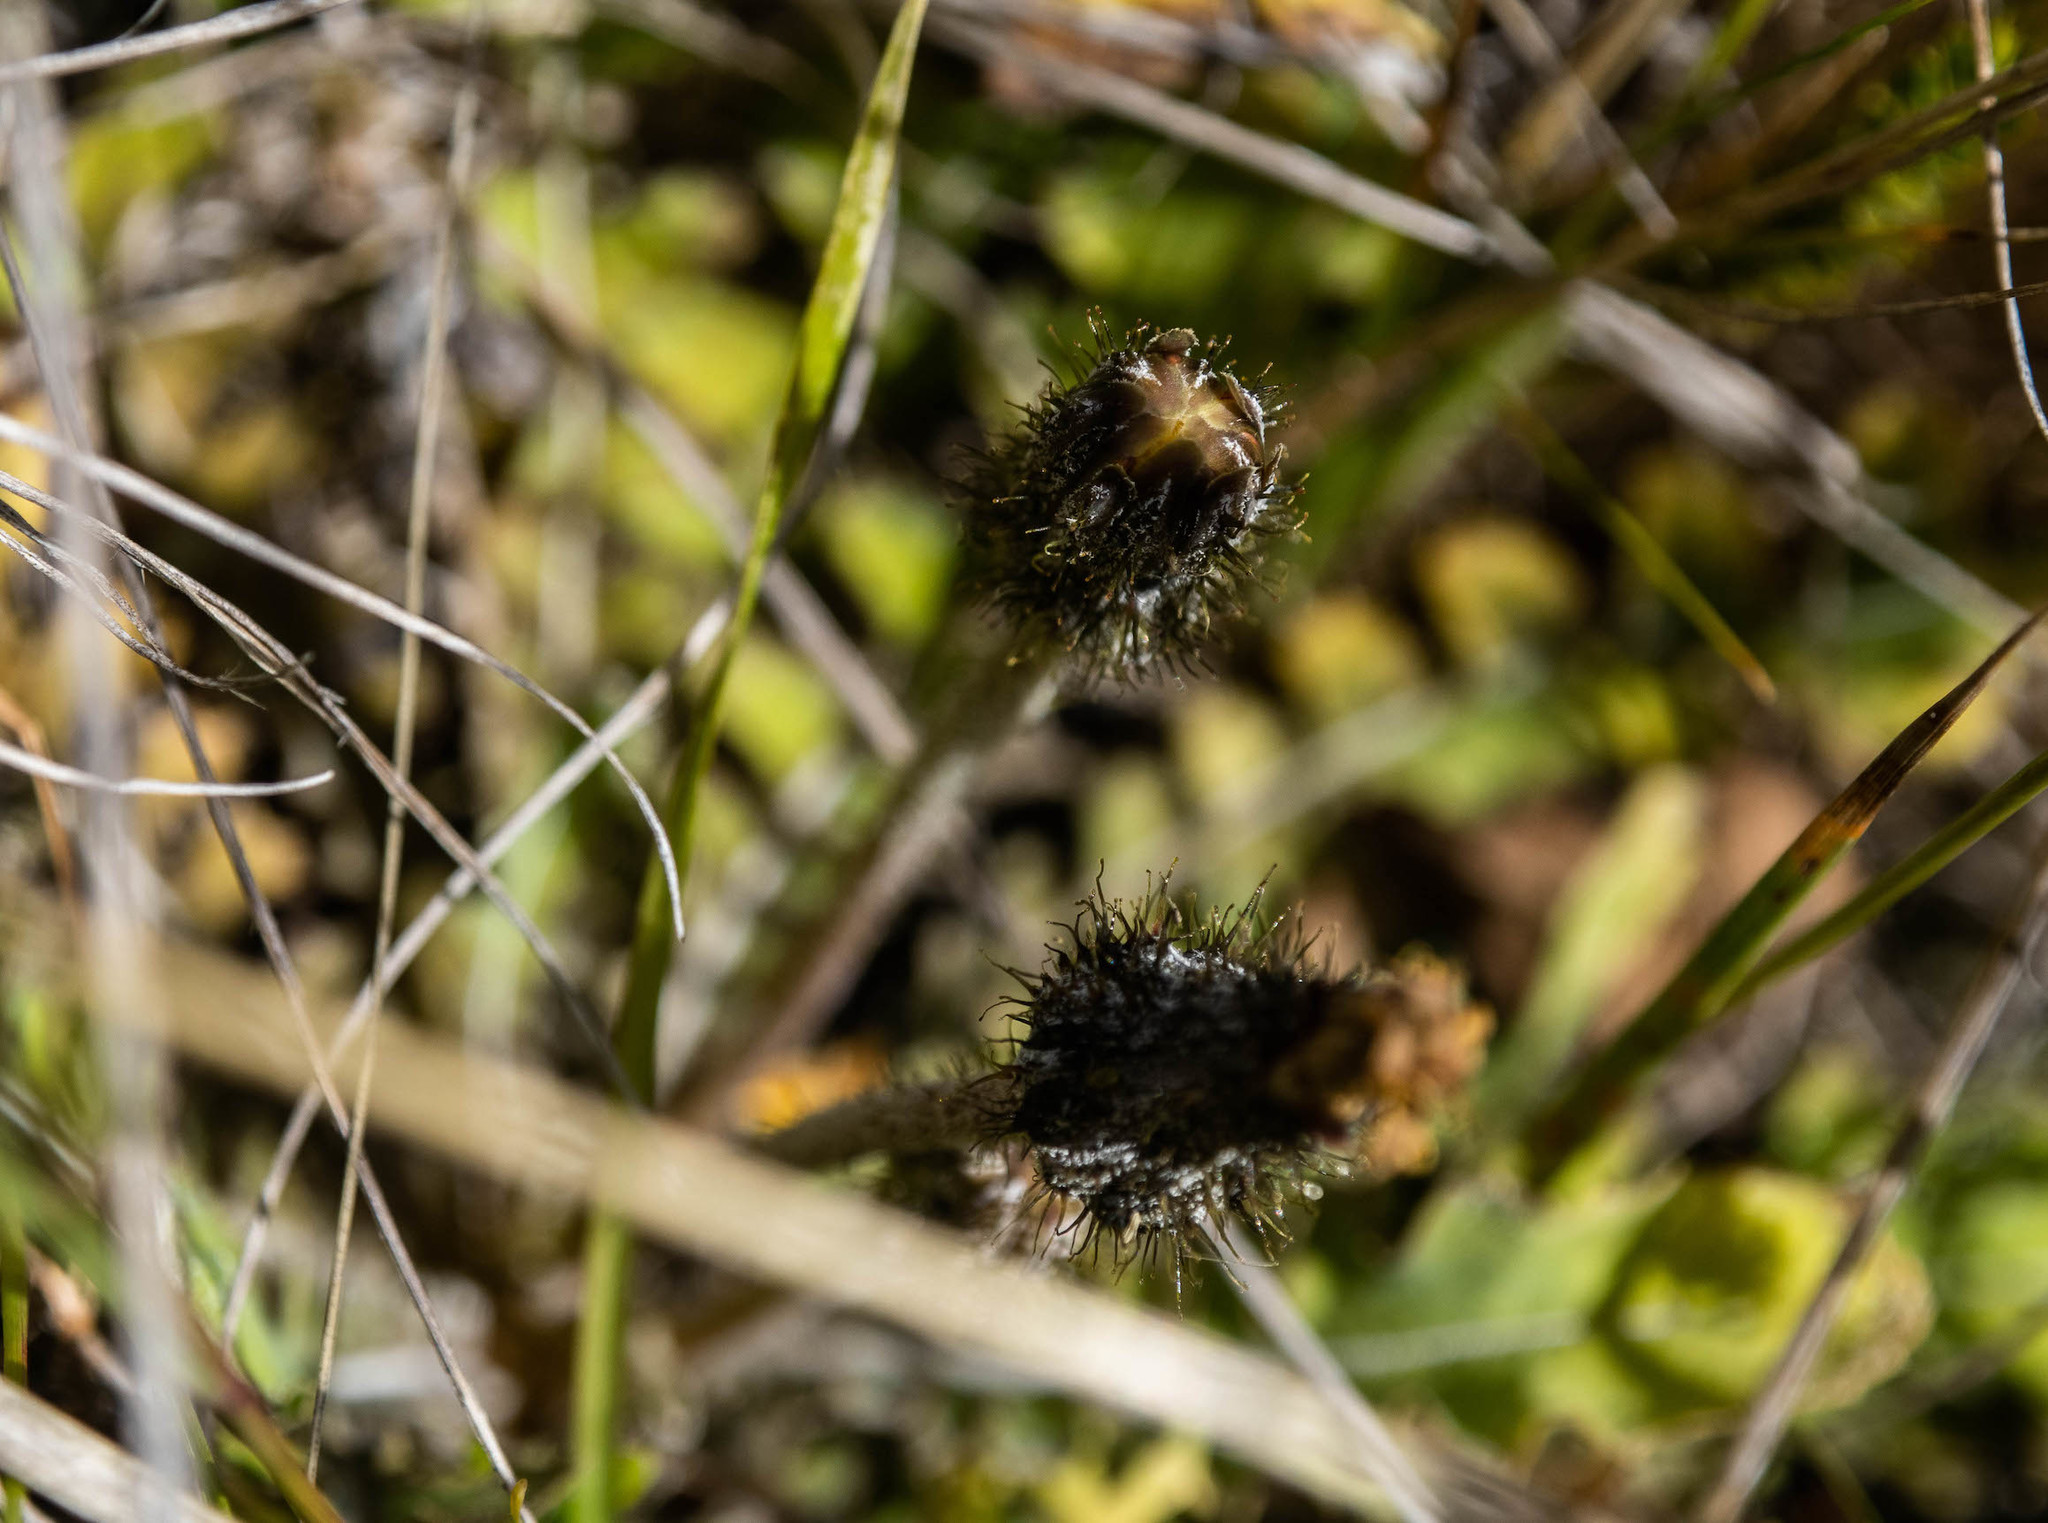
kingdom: Plantae
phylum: Tracheophyta
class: Magnoliopsida
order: Asterales
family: Asteraceae
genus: Sonchus
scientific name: Sonchus novae-zelandiae
